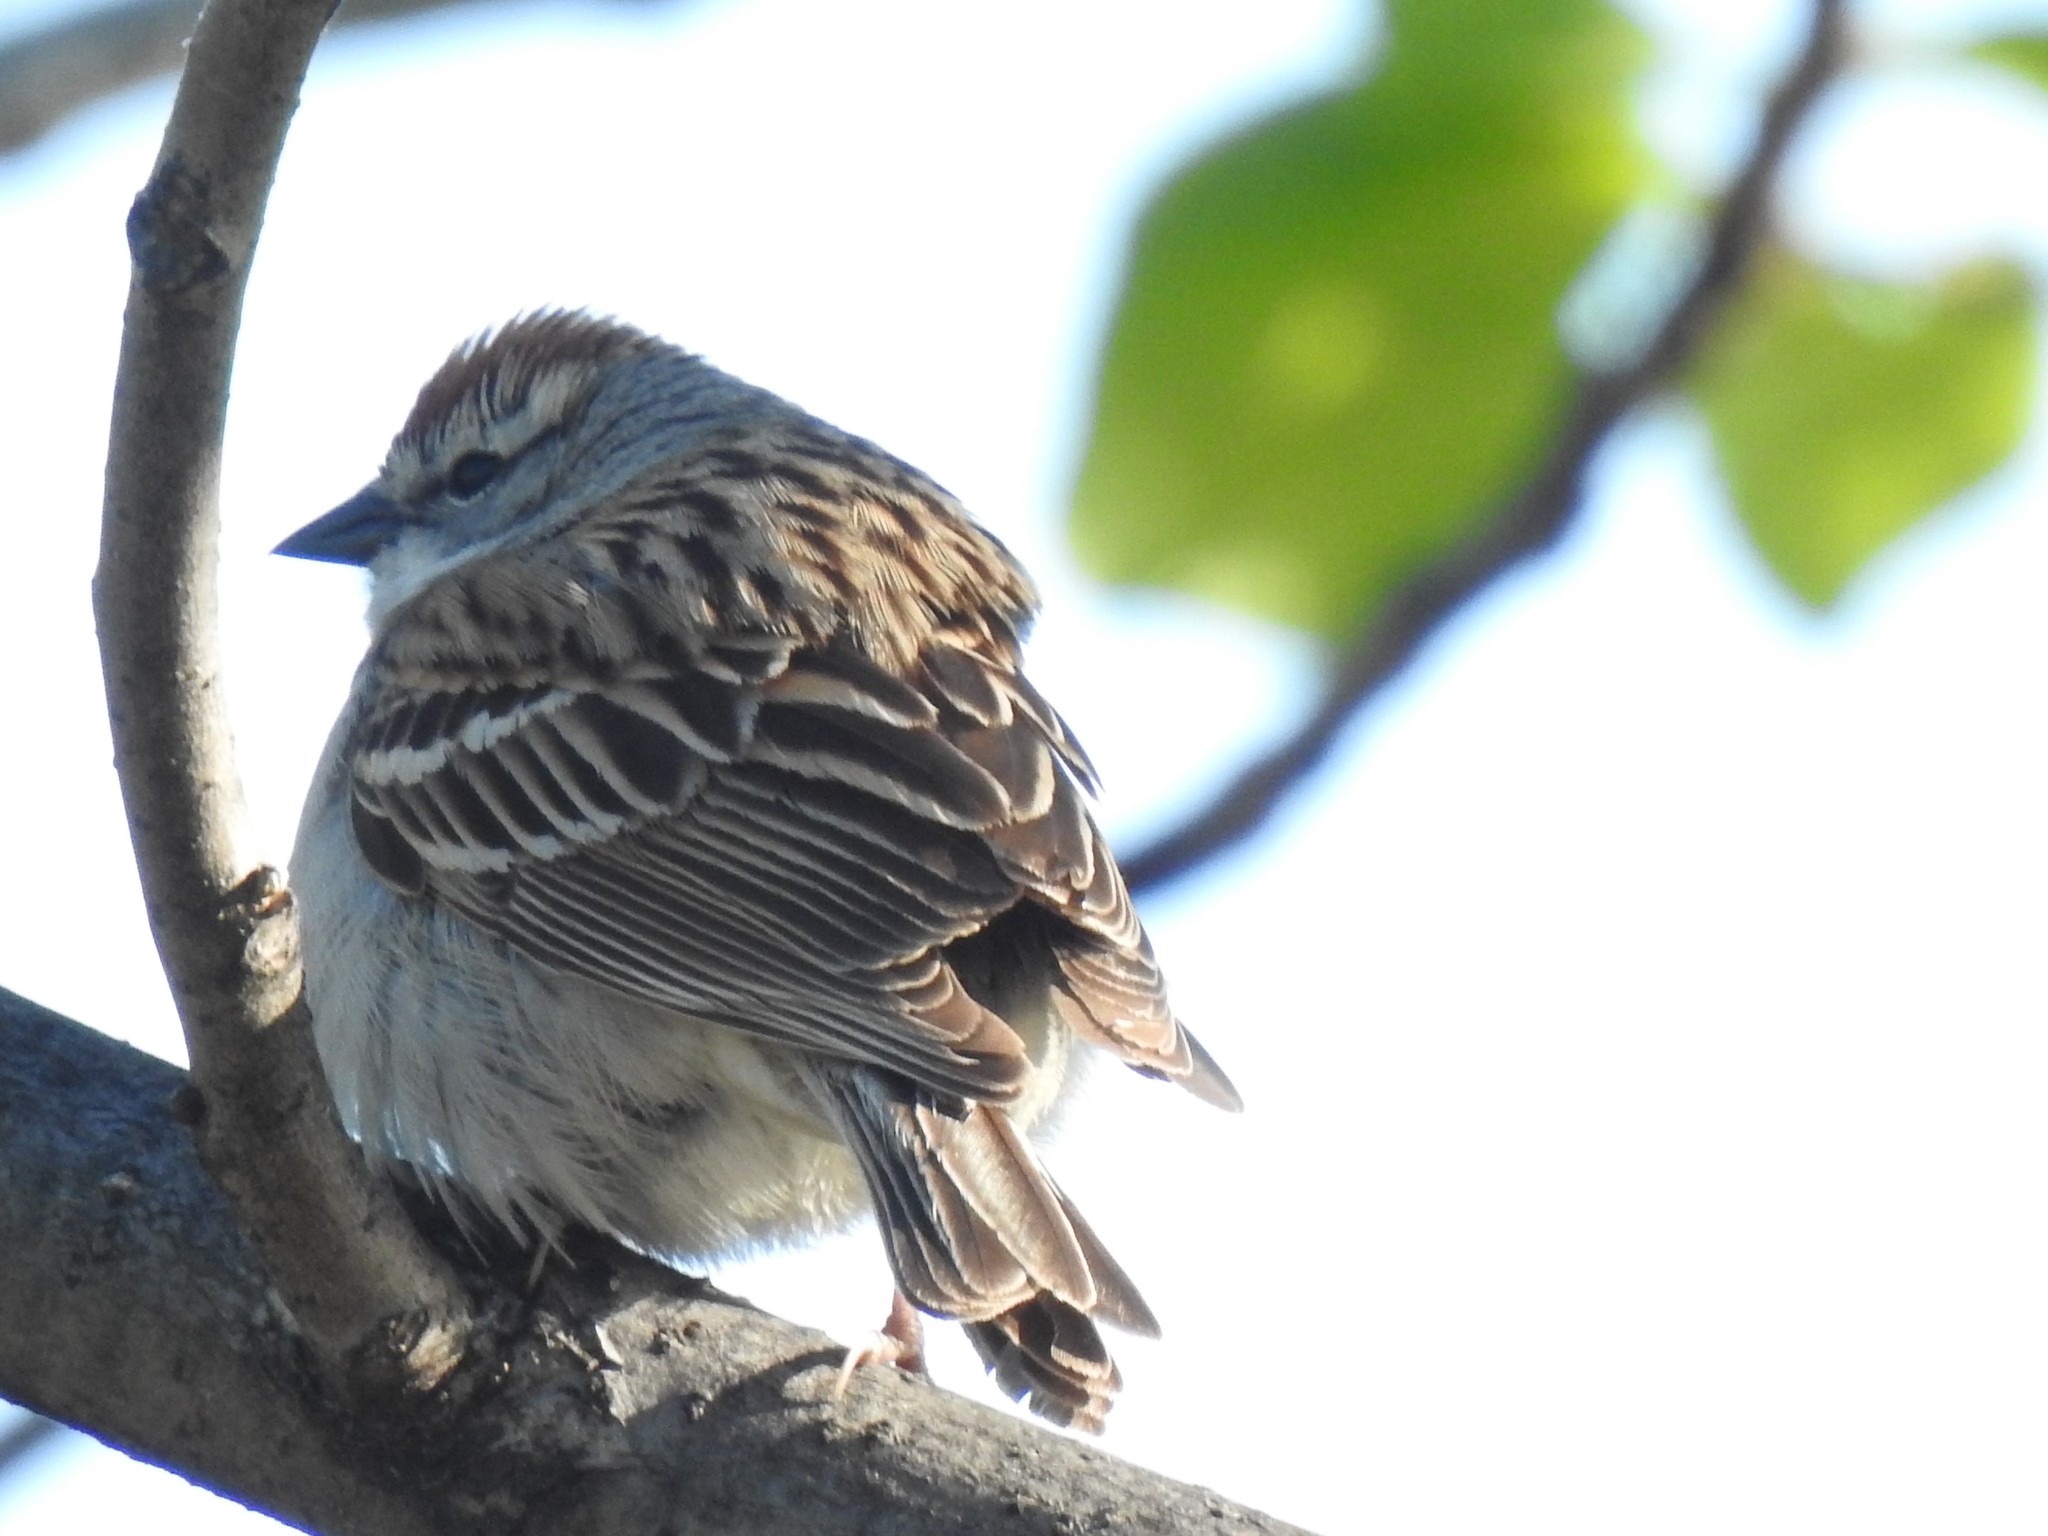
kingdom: Animalia
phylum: Chordata
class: Aves
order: Passeriformes
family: Passerellidae
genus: Spizella
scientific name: Spizella passerina
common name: Chipping sparrow
